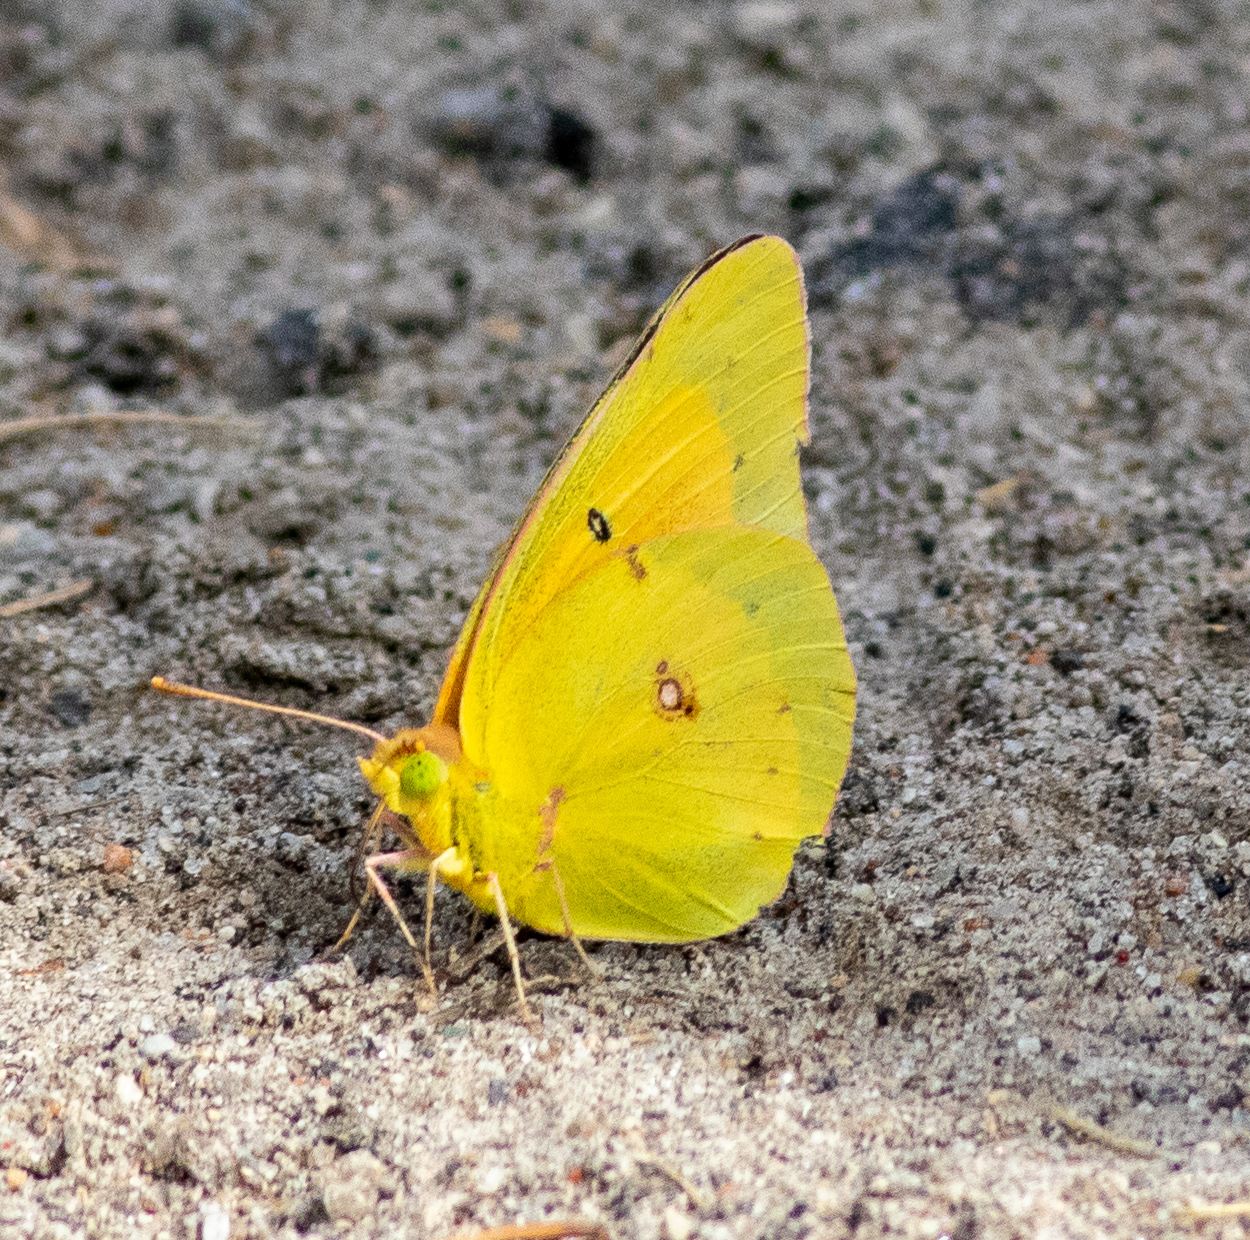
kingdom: Animalia
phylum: Arthropoda
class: Insecta
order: Lepidoptera
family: Pieridae
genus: Colias
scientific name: Colias eurytheme
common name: Alfalfa butterfly
